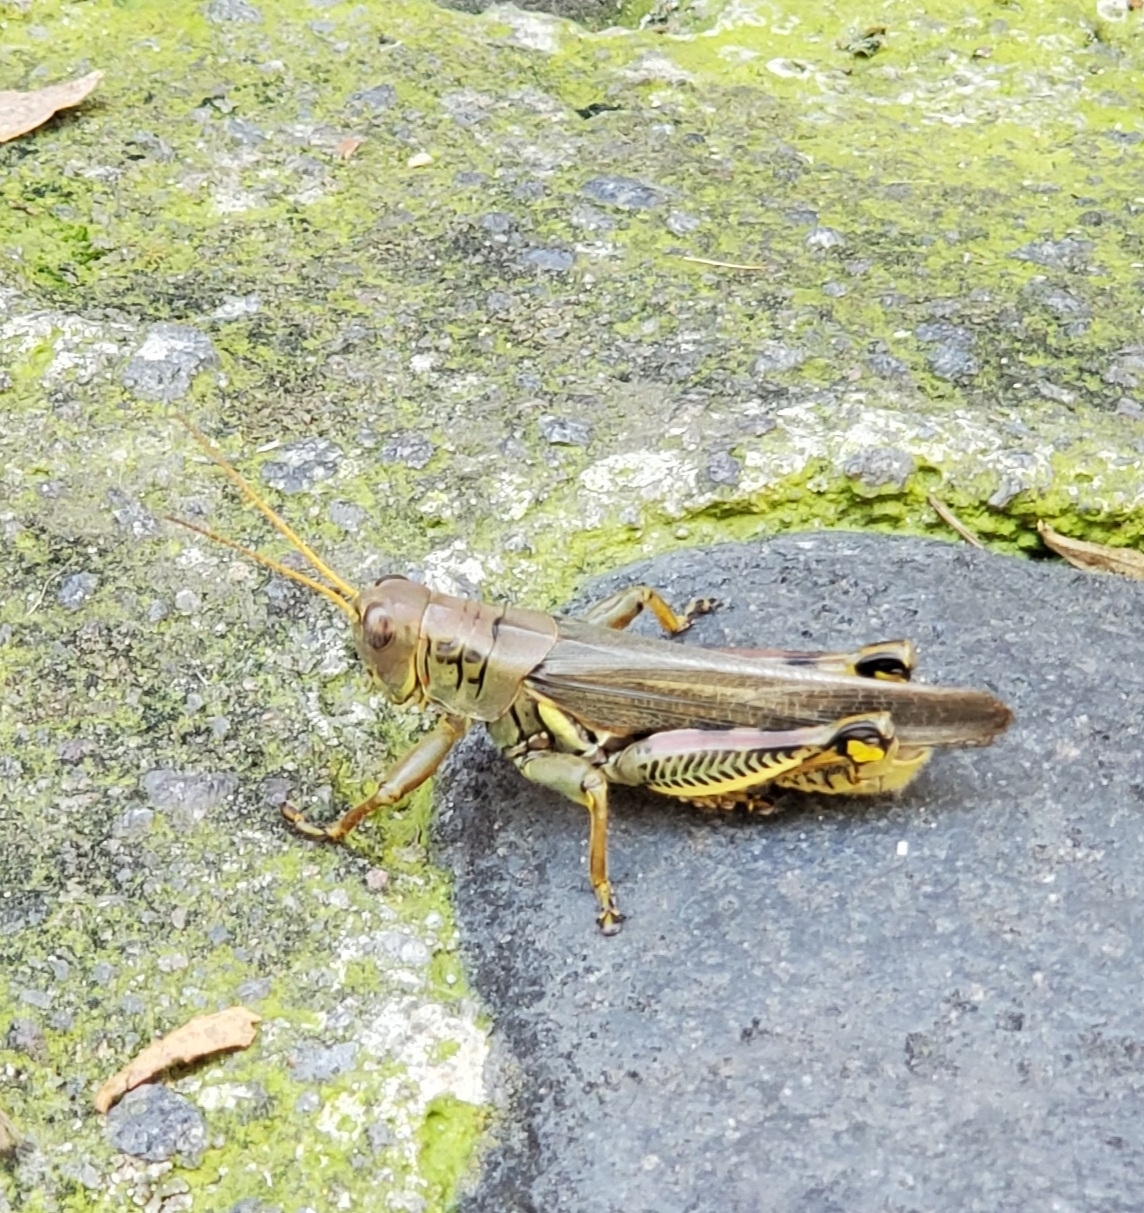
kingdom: Animalia
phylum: Arthropoda
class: Insecta
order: Orthoptera
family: Acrididae
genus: Melanoplus
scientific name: Melanoplus differentialis
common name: Differential grasshopper
